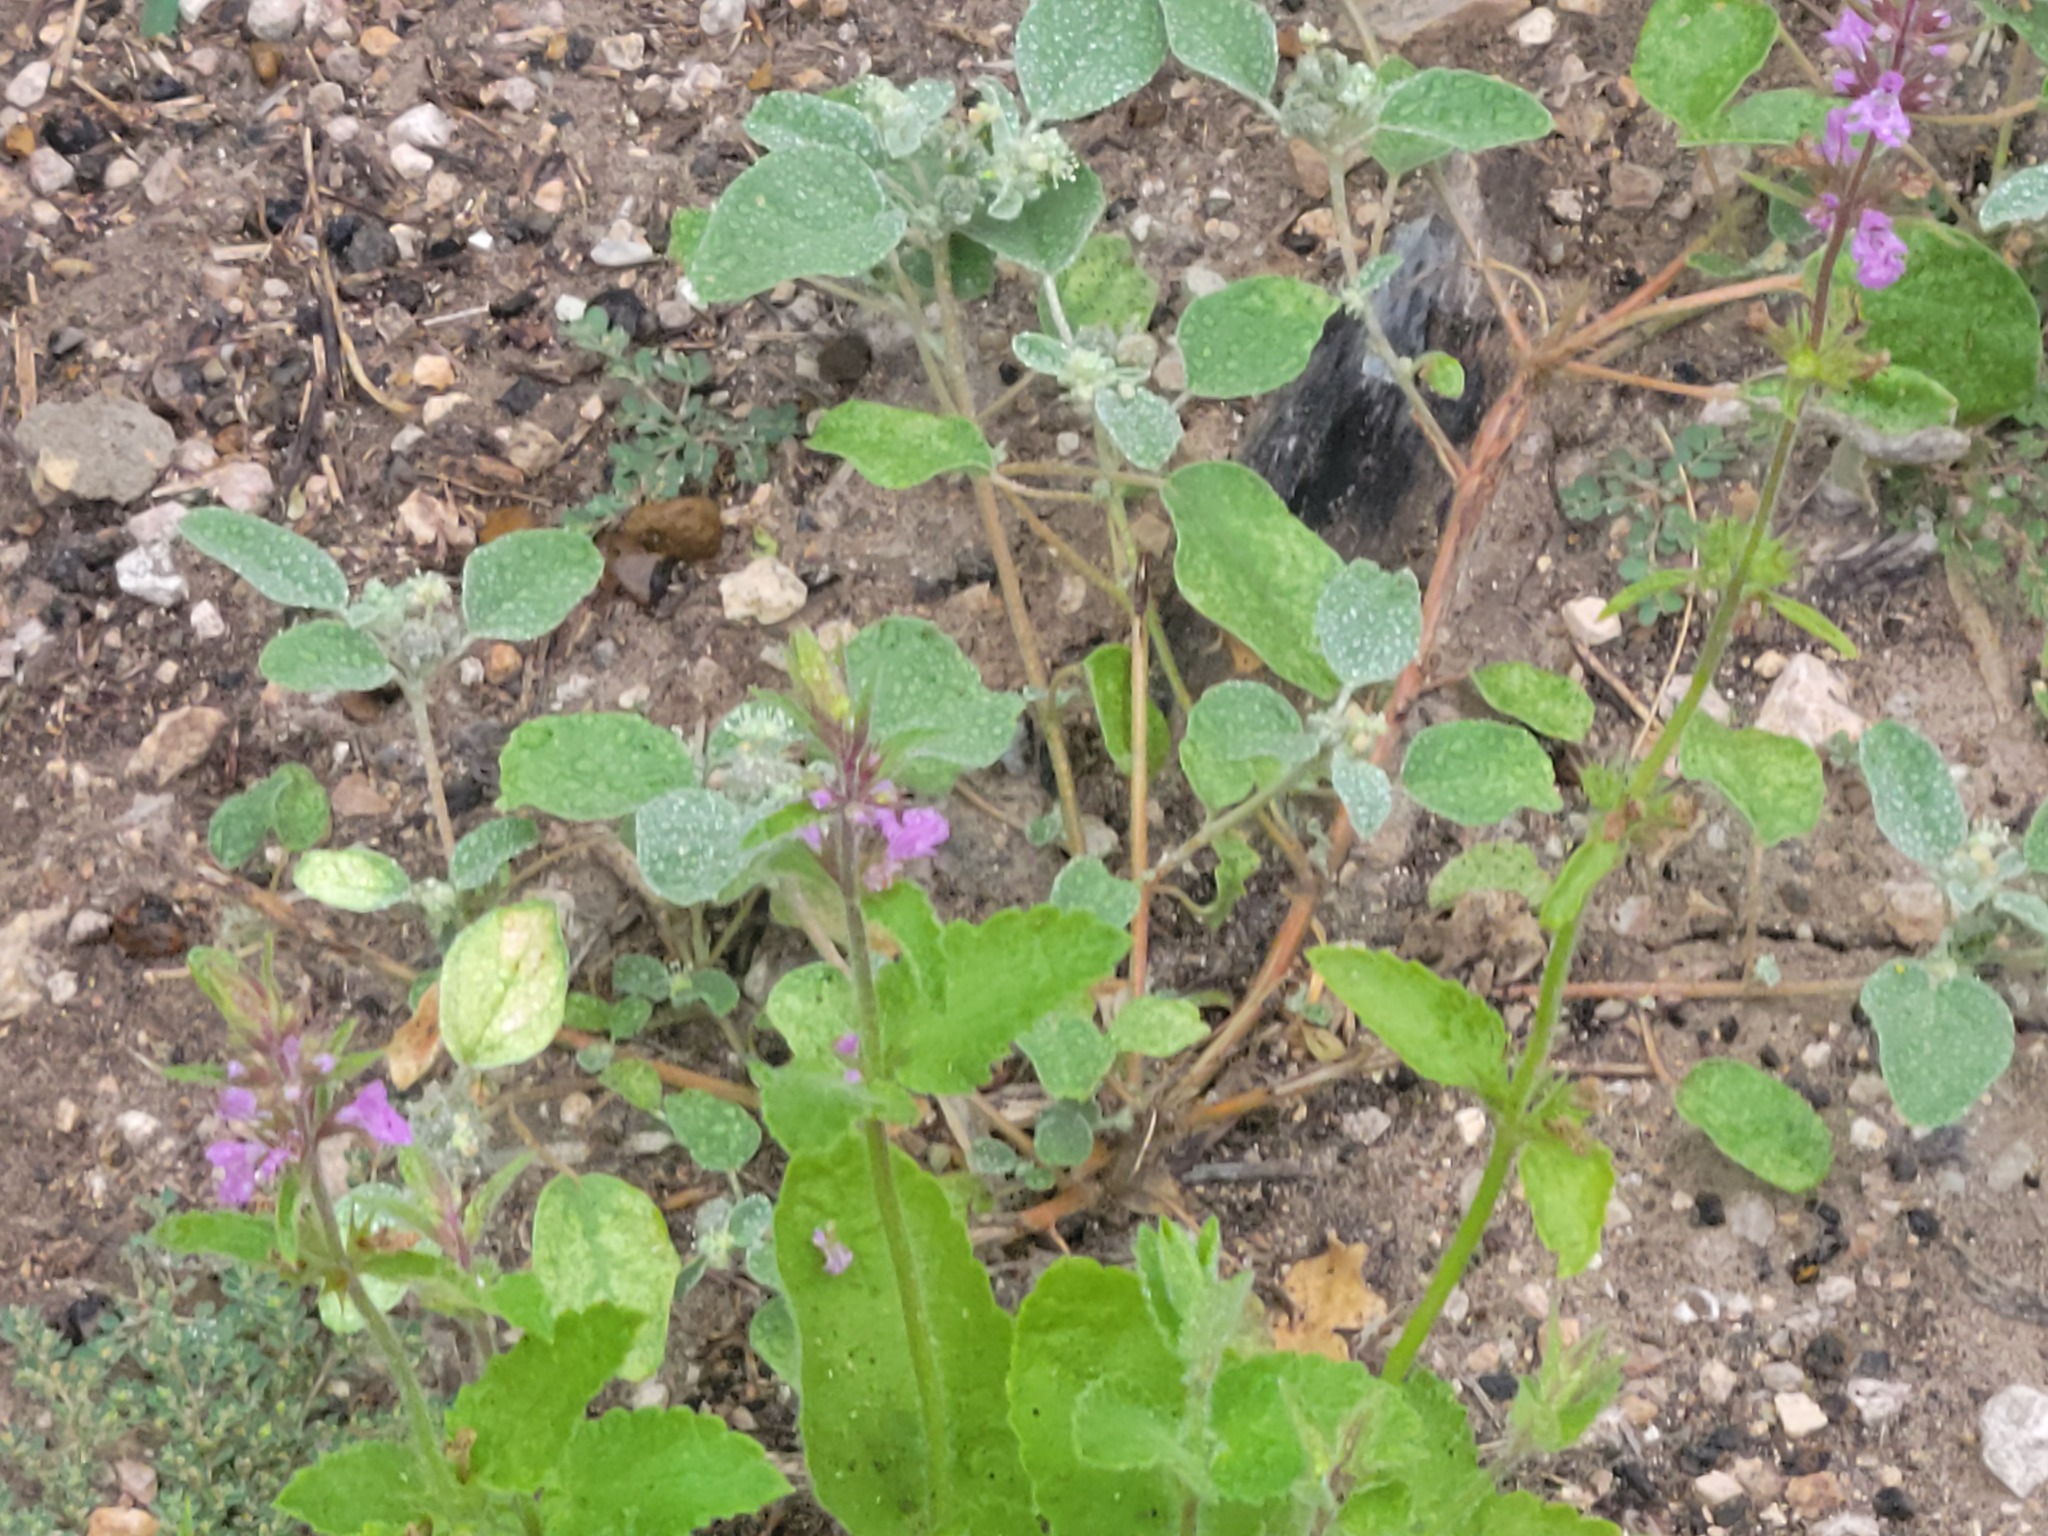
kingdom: Plantae
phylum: Tracheophyta
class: Magnoliopsida
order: Lamiales
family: Lamiaceae
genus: Stachys
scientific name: Stachys drummondii
